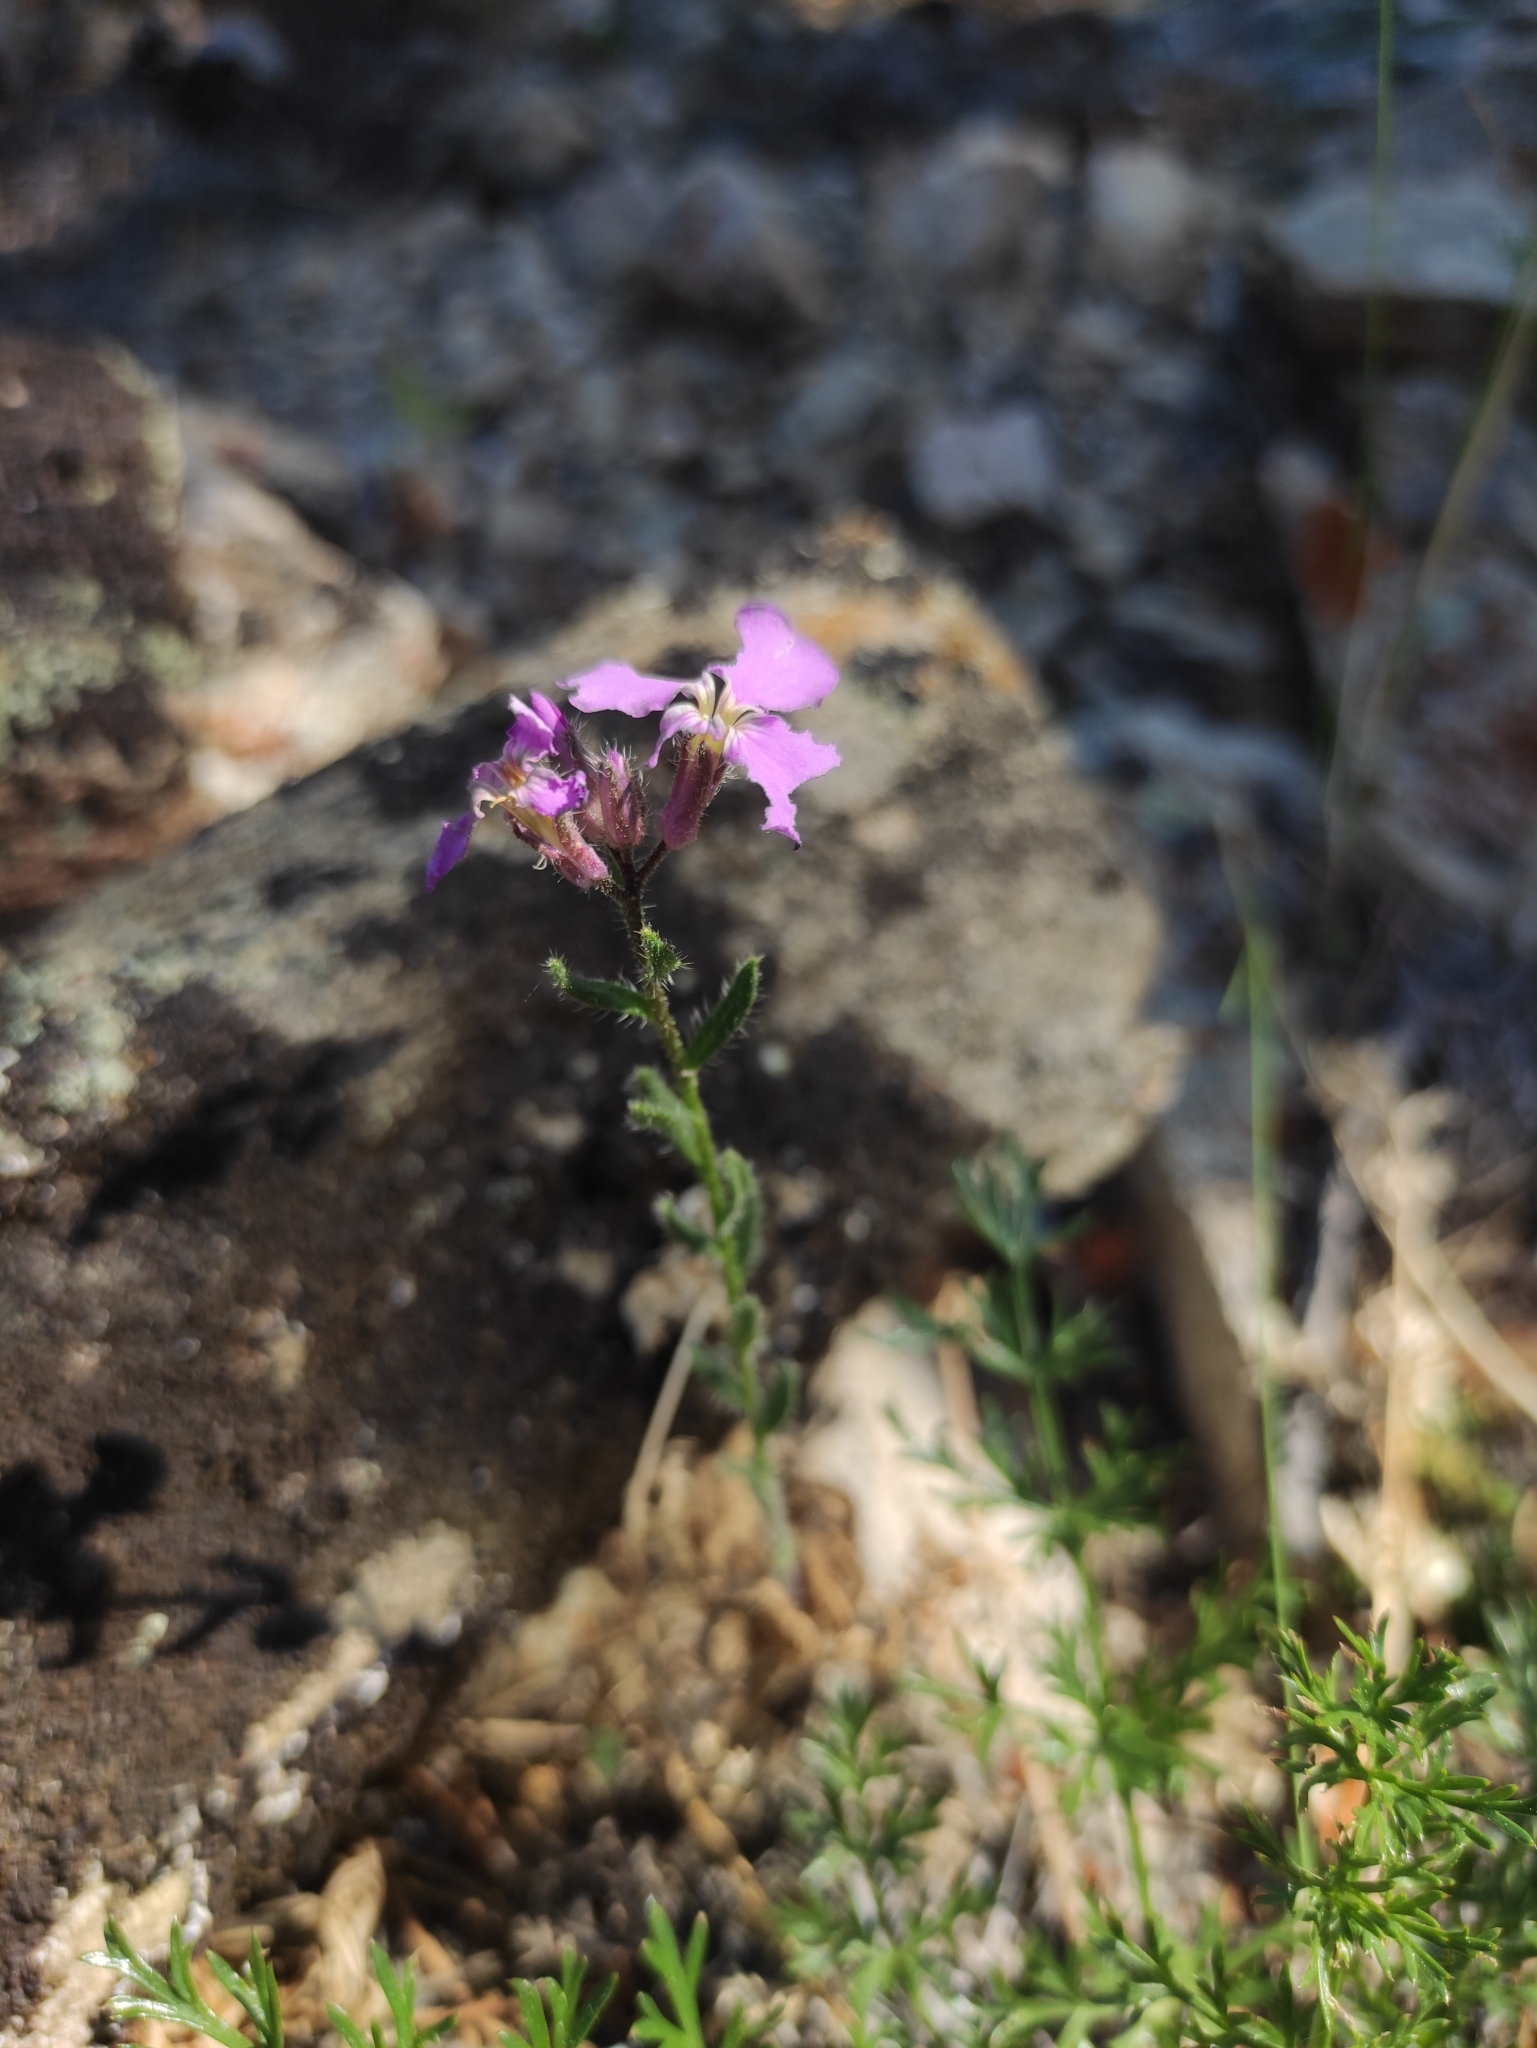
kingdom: Plantae
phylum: Tracheophyta
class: Magnoliopsida
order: Brassicales
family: Brassicaceae
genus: Clausia
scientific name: Clausia aprica
